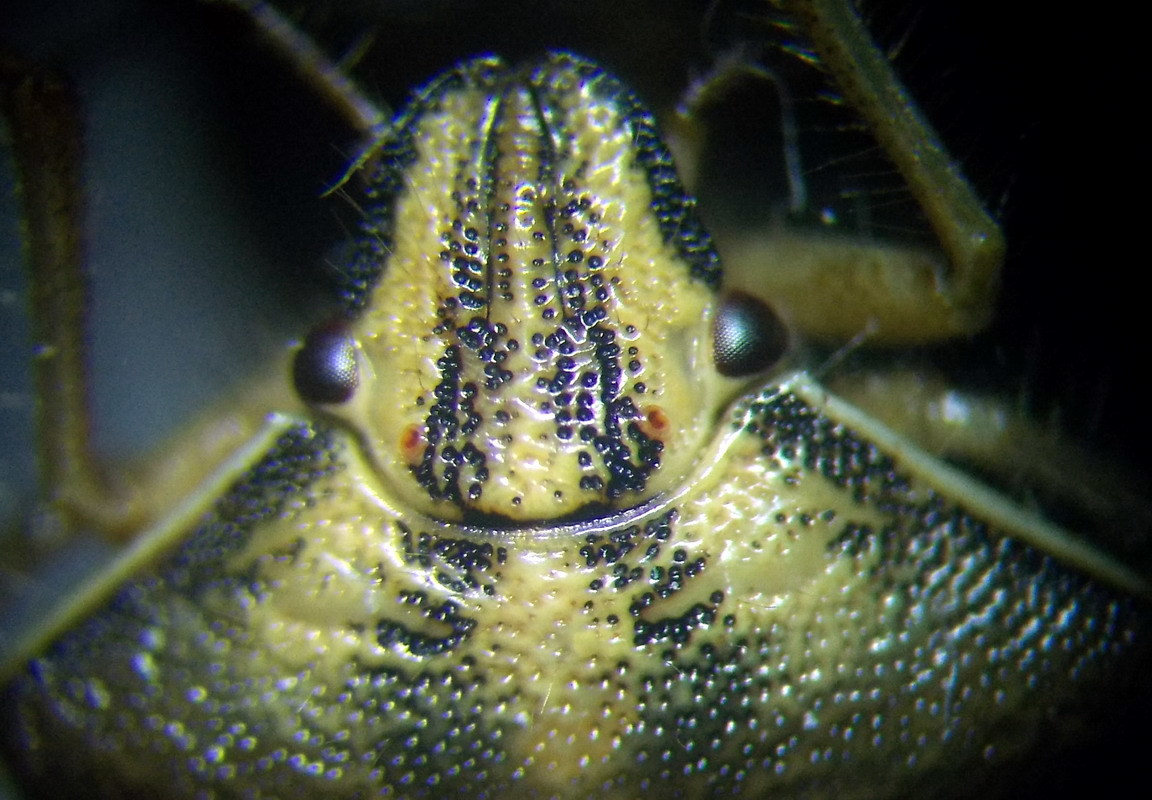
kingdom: Animalia
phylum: Arthropoda
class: Insecta
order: Hemiptera
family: Pentatomidae
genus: Antheminia
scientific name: Antheminia varicornis
